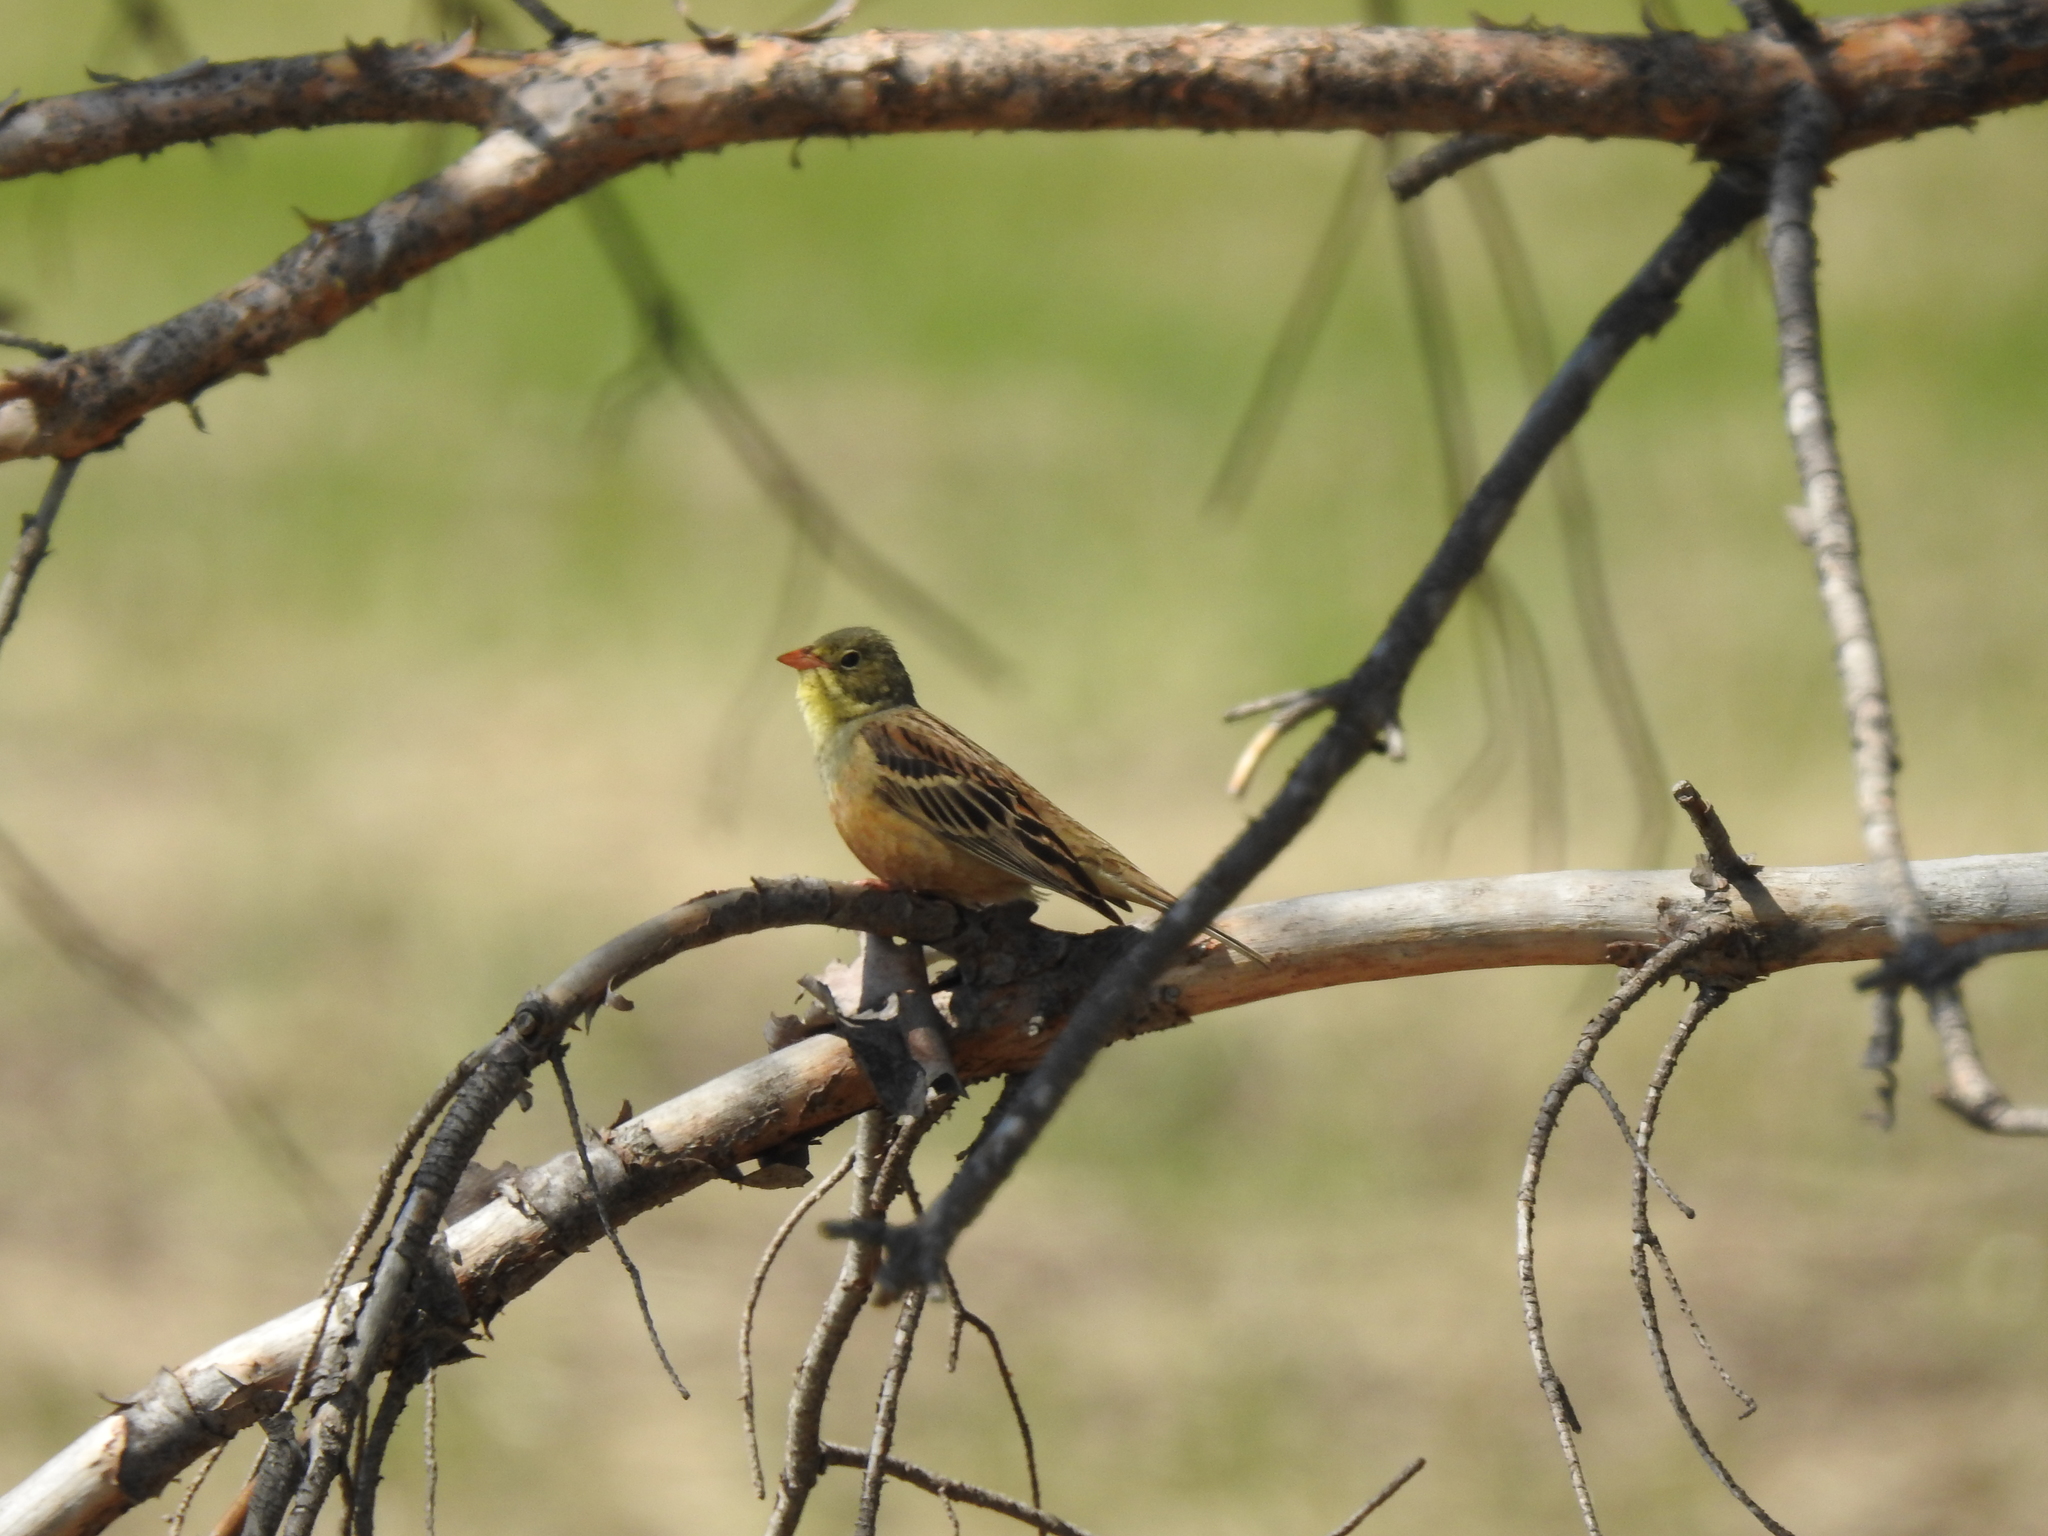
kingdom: Animalia
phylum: Chordata
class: Aves
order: Passeriformes
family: Emberizidae
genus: Emberiza
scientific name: Emberiza hortulana
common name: Ortolan bunting
